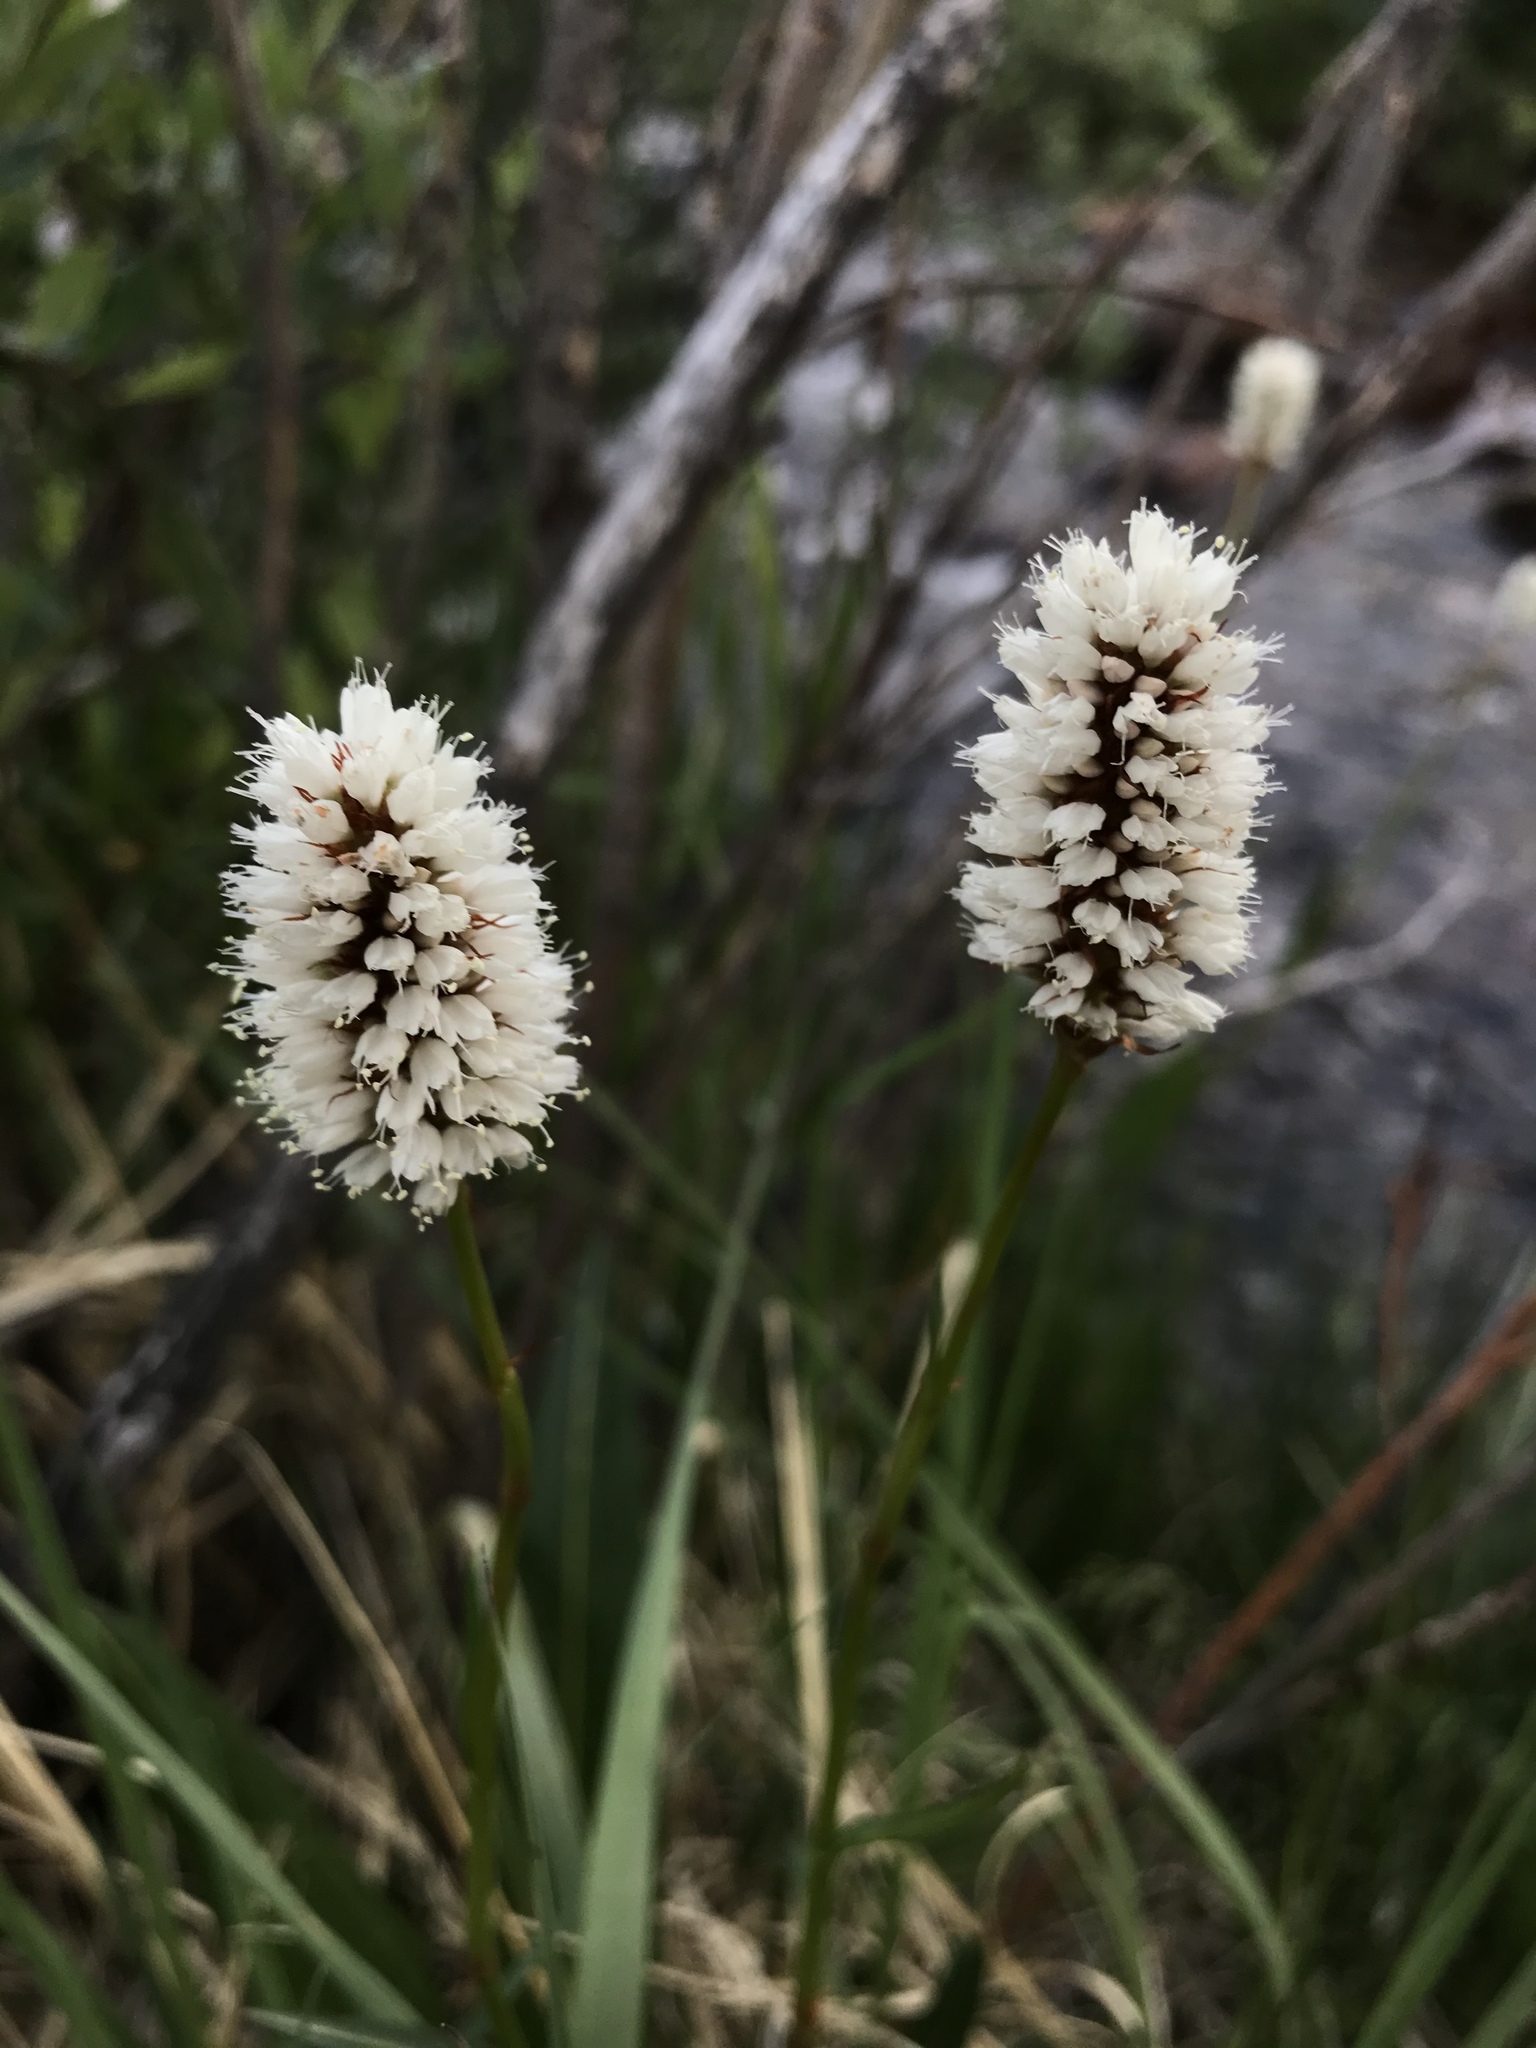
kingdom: Plantae
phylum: Tracheophyta
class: Magnoliopsida
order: Caryophyllales
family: Polygonaceae
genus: Bistorta
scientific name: Bistorta bistortoides
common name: American bistort
